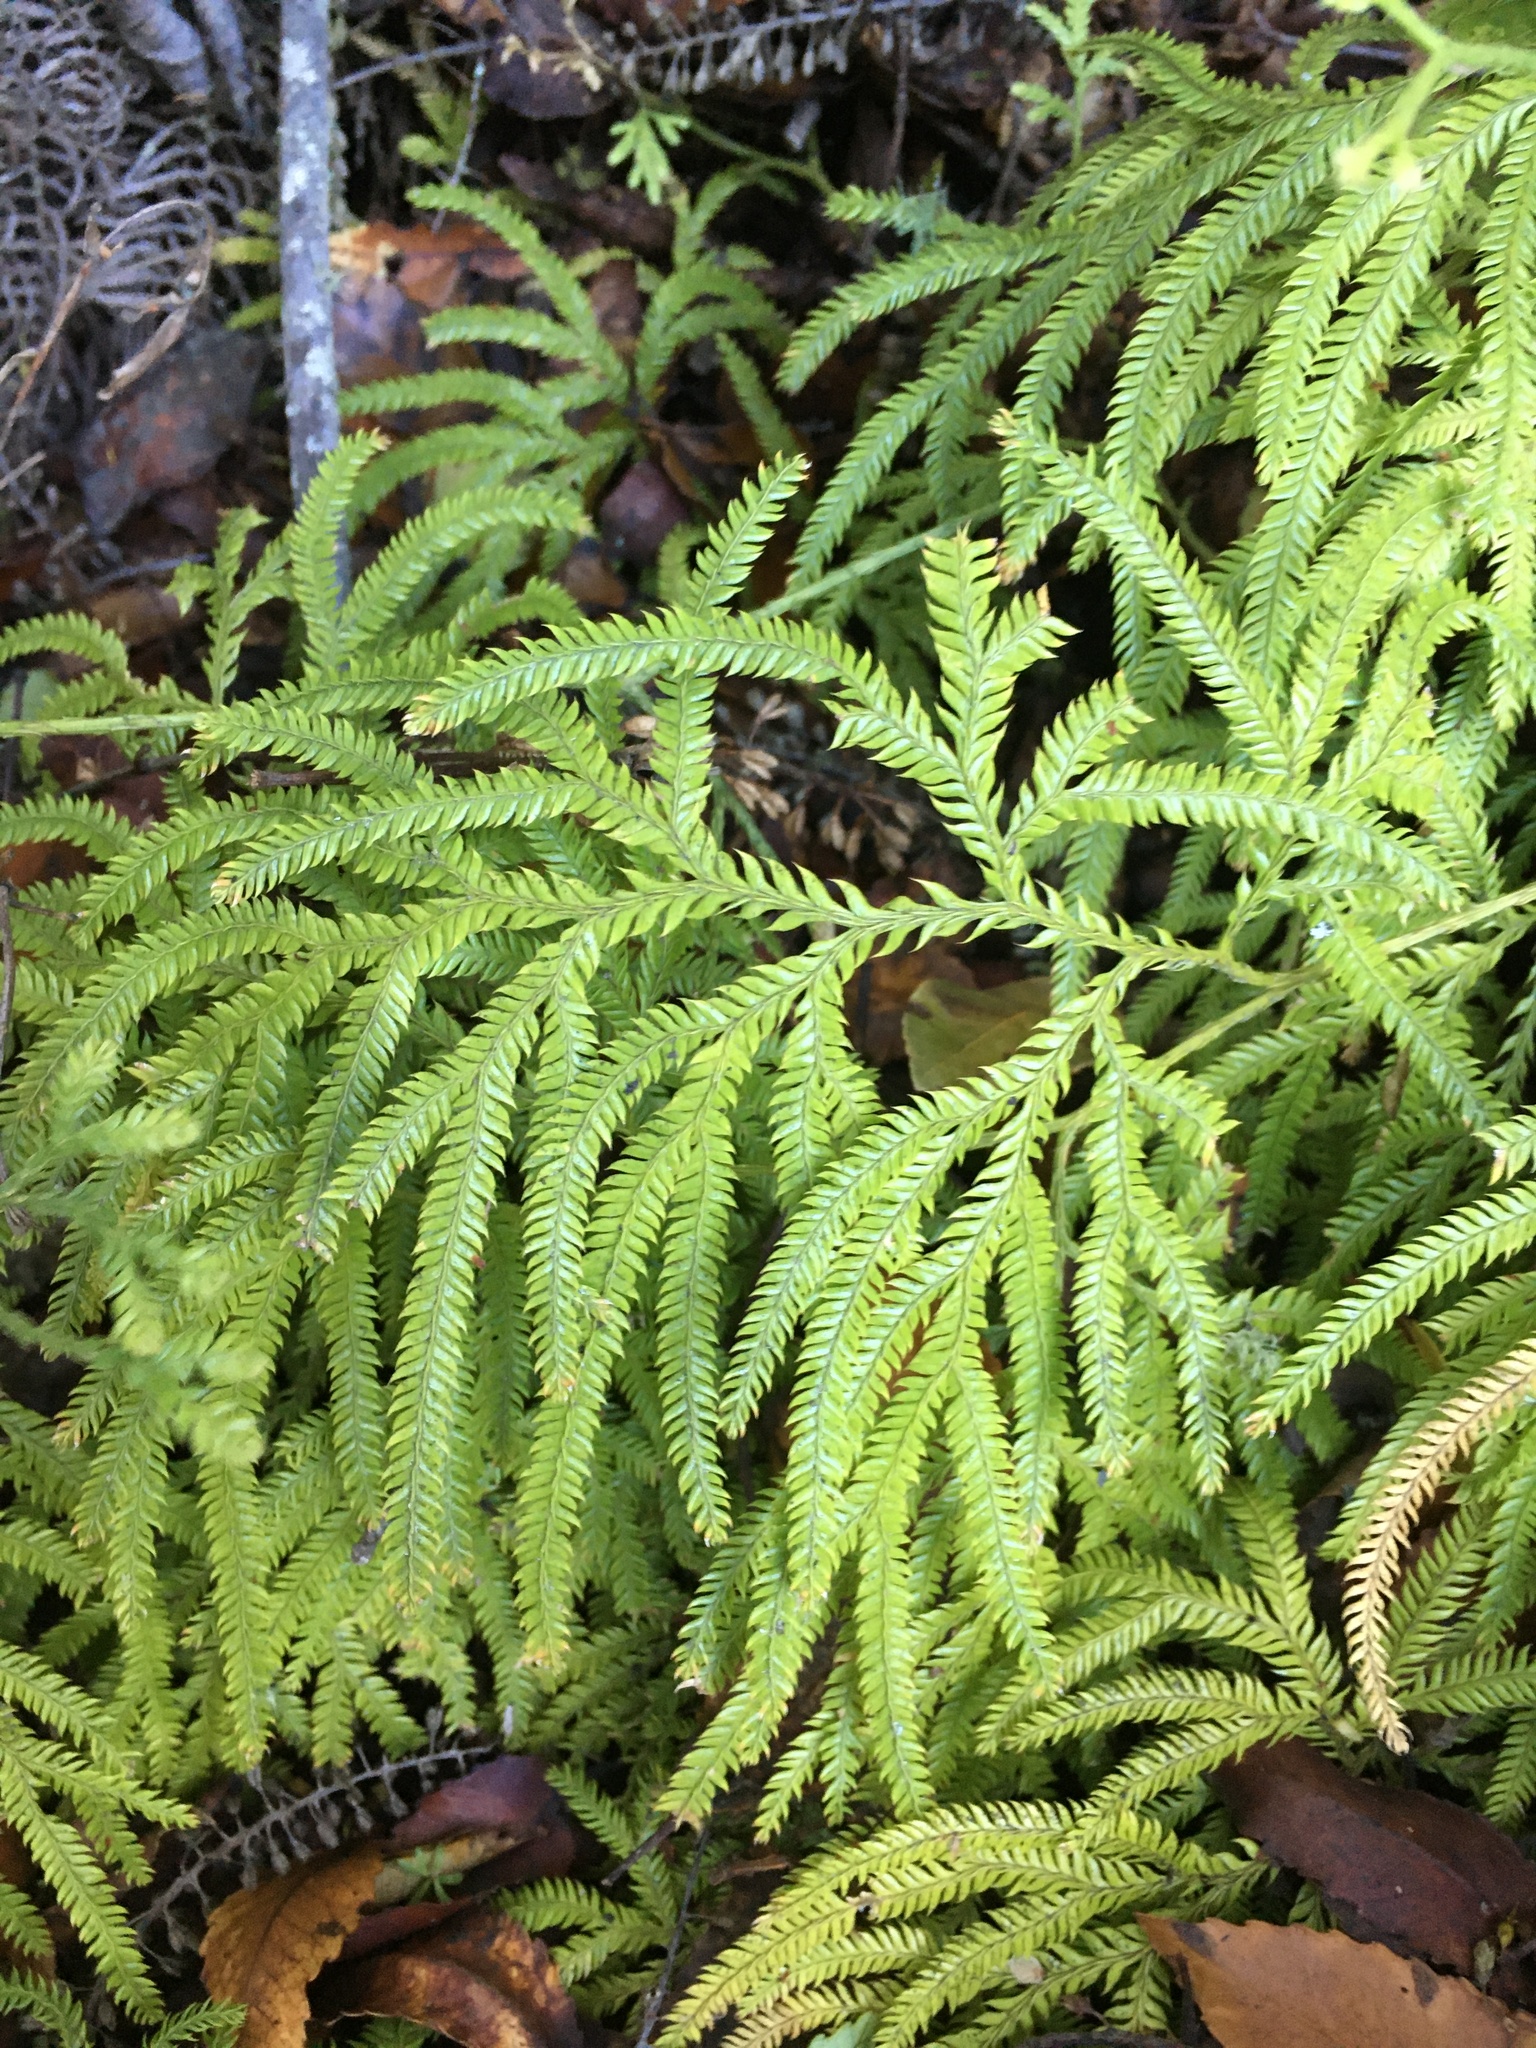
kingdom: Plantae
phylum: Tracheophyta
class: Lycopodiopsida
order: Lycopodiales
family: Lycopodiaceae
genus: Lycopodium
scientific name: Lycopodium volubile
